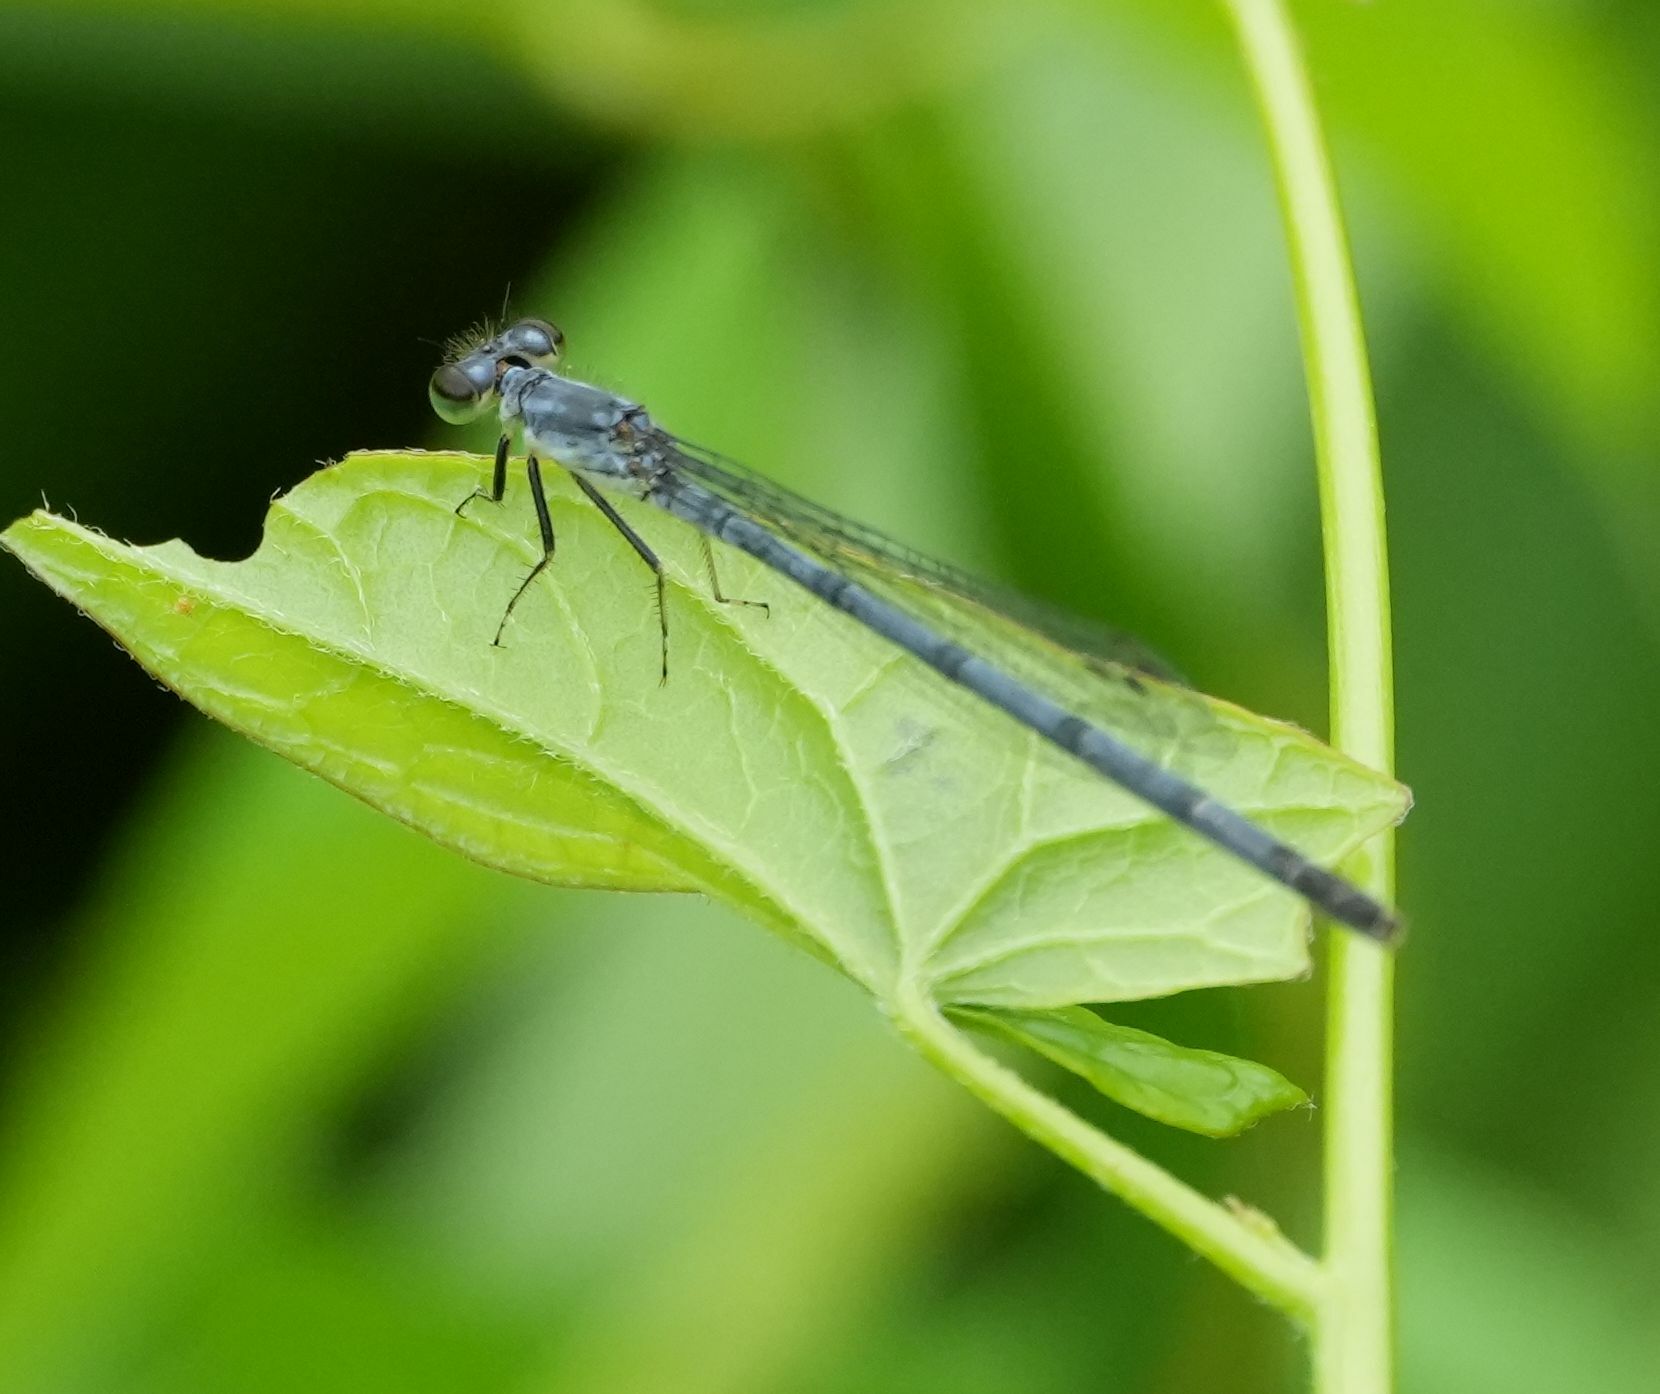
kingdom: Animalia
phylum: Arthropoda
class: Insecta
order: Odonata
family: Coenagrionidae
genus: Ischnura
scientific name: Ischnura verticalis
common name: Eastern forktail
